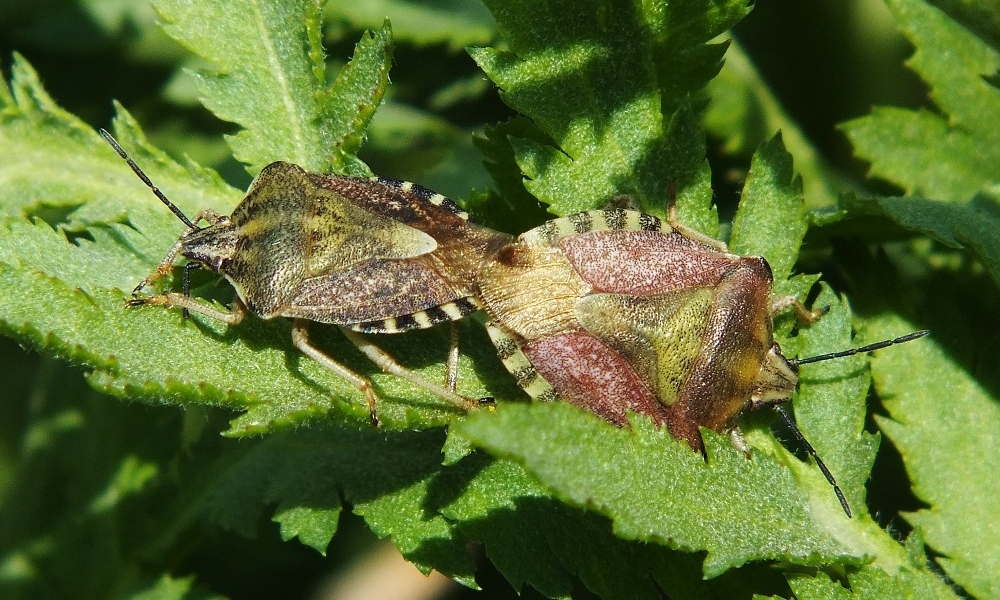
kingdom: Animalia
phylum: Arthropoda
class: Insecta
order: Hemiptera
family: Pentatomidae
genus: Carpocoris
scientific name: Carpocoris purpureipennis
